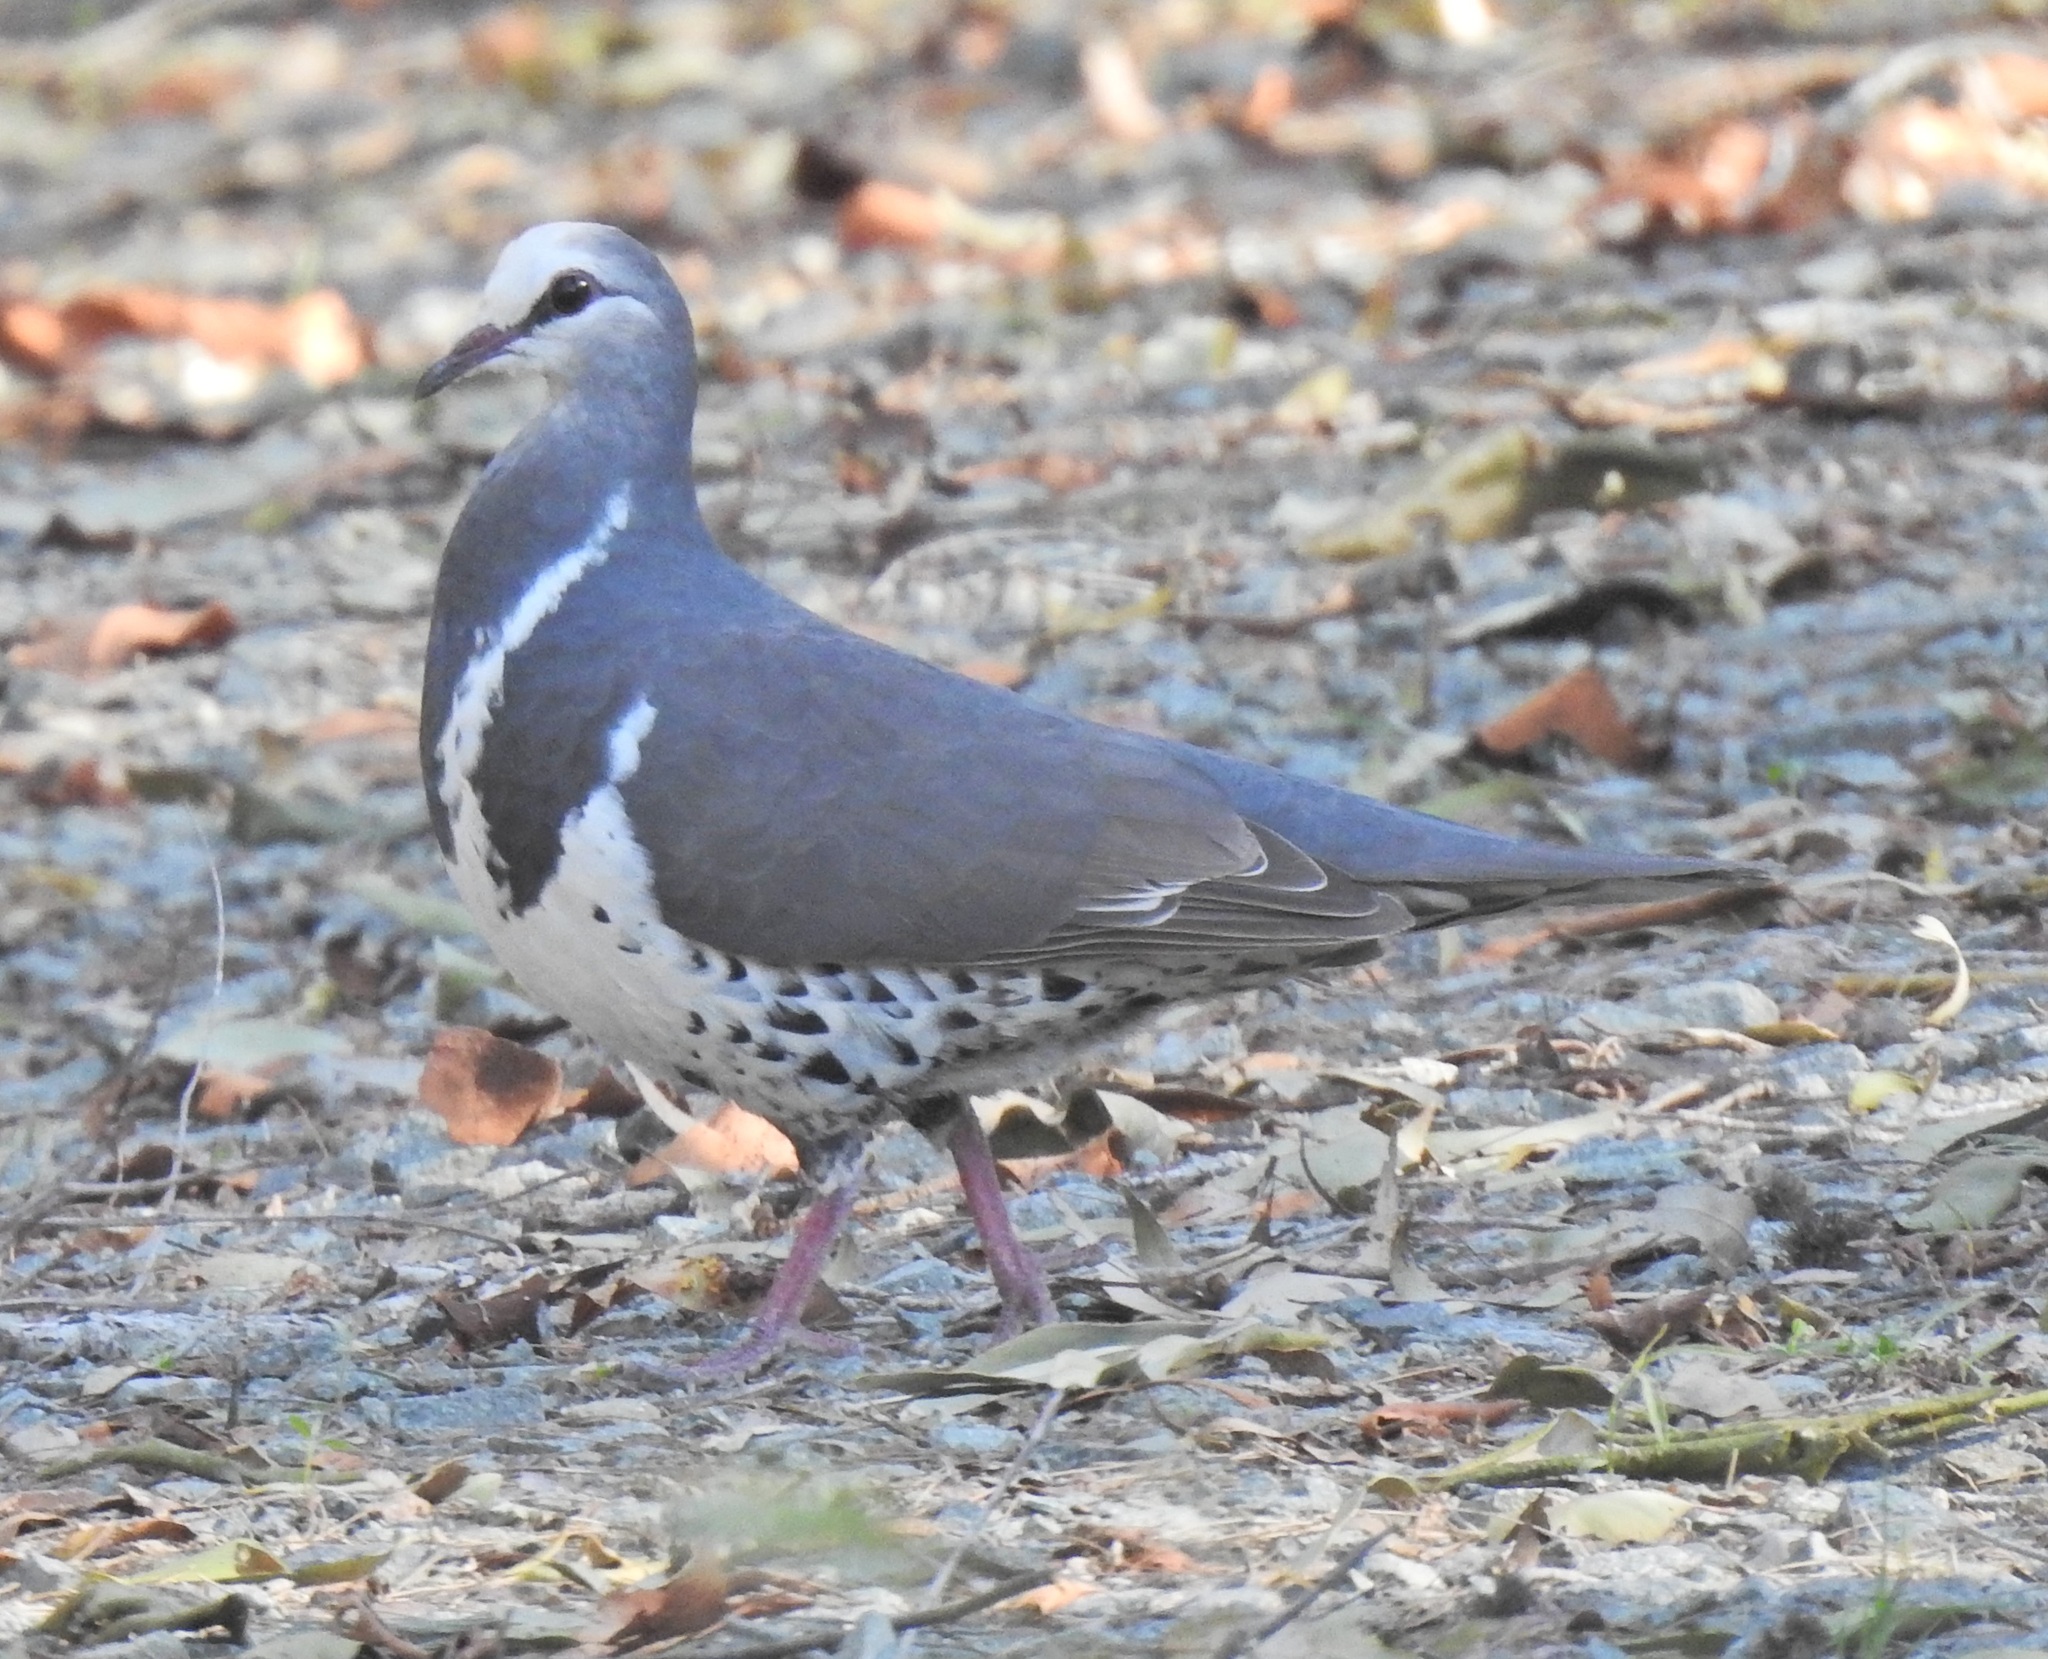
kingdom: Animalia
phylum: Chordata
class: Aves
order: Columbiformes
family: Columbidae
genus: Leucosarcia
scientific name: Leucosarcia melanoleuca
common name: Wonga pigeon
